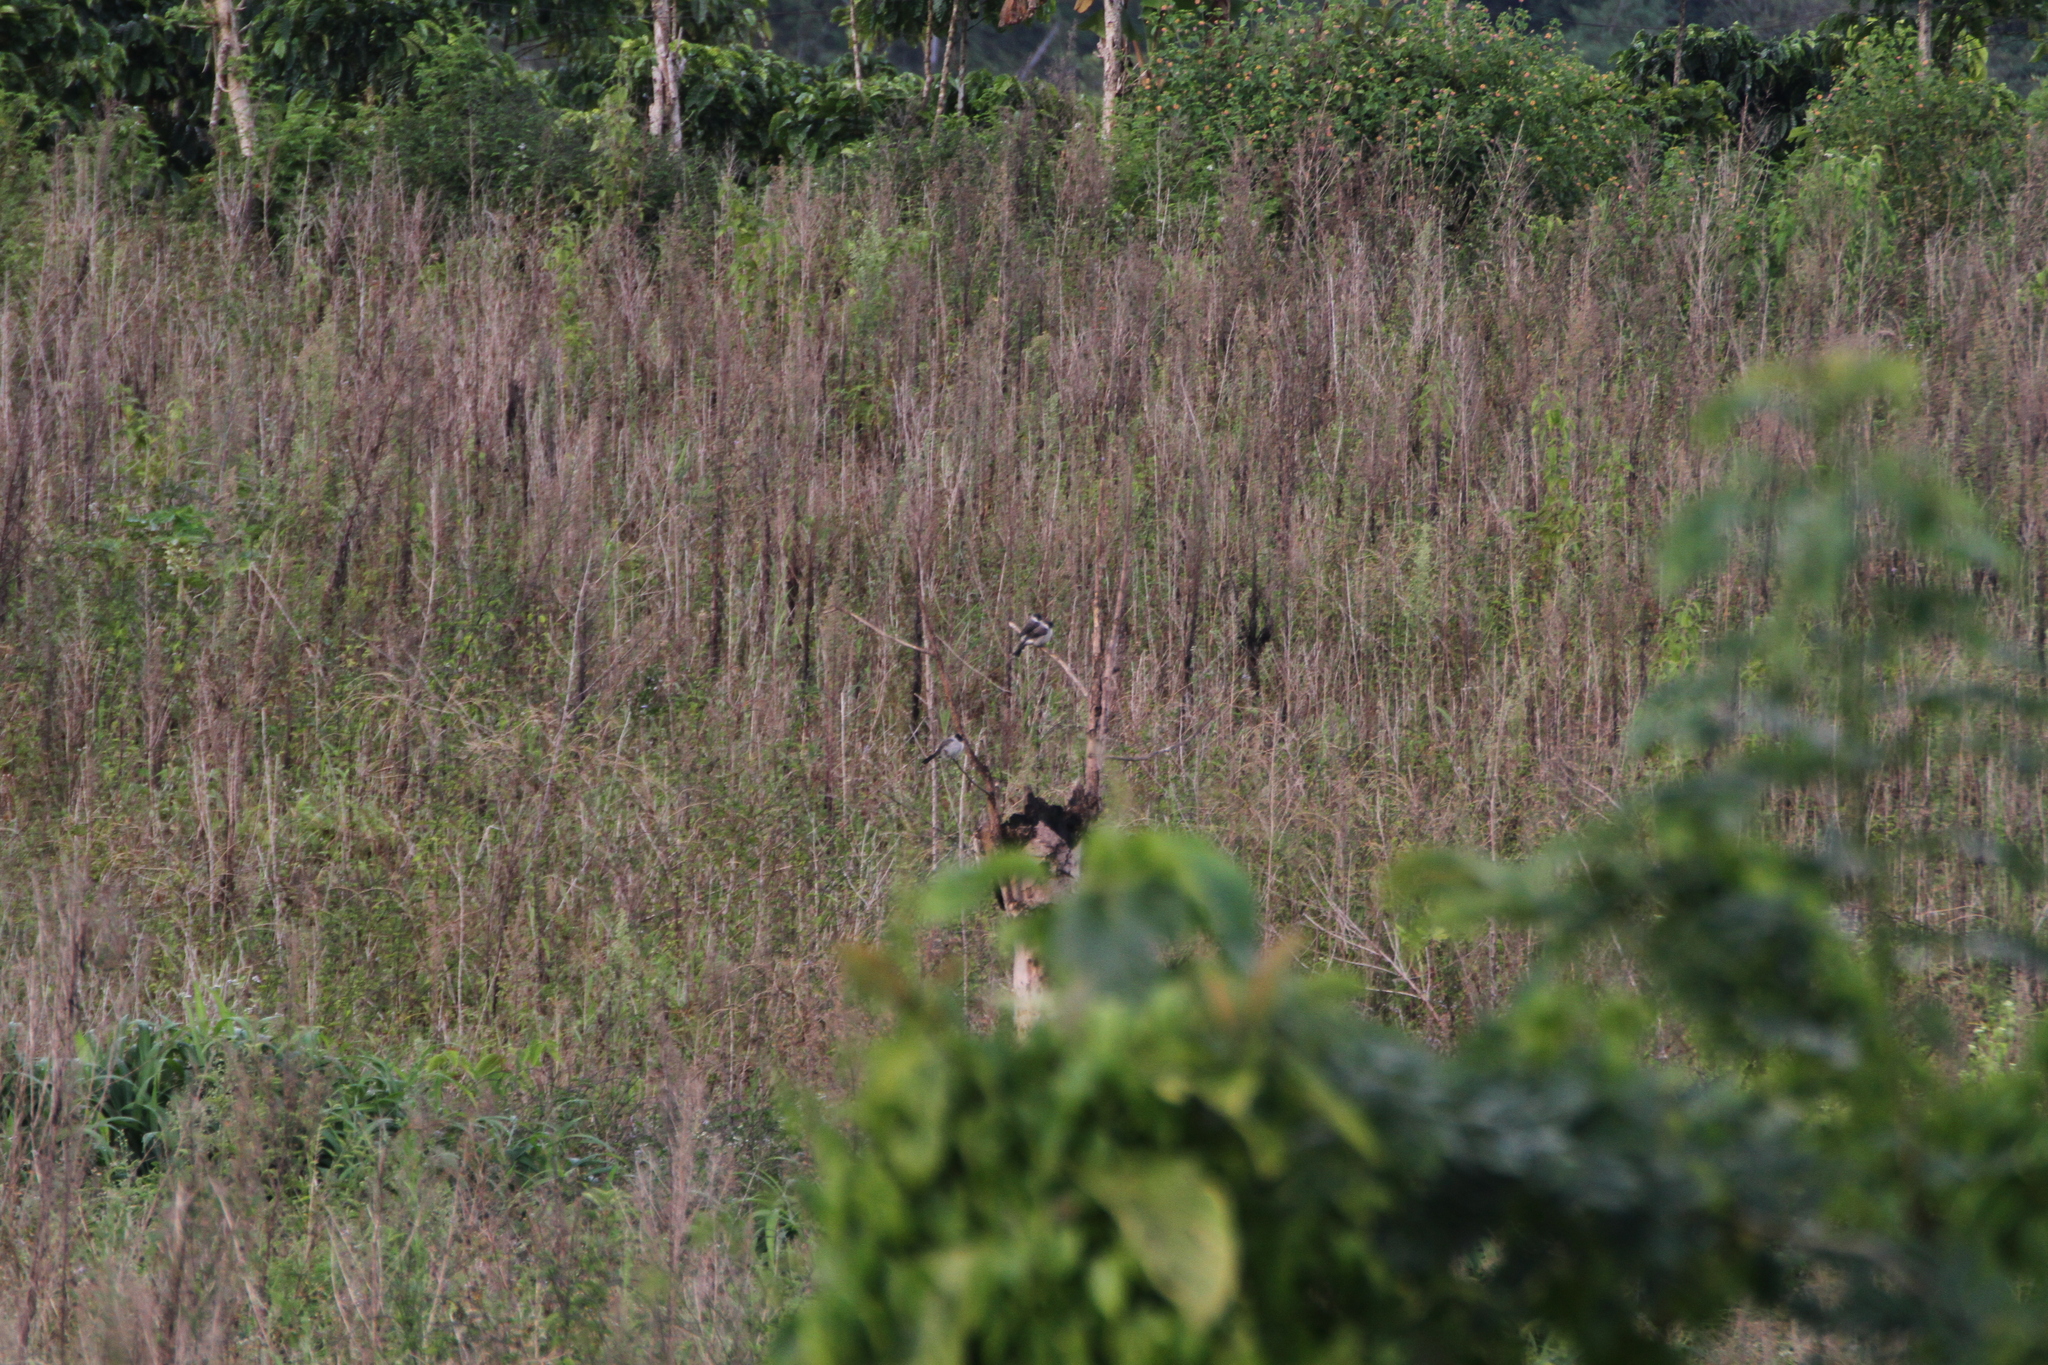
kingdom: Animalia
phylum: Chordata
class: Aves
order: Passeriformes
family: Pycnonotidae
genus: Pycnonotus
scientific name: Pycnonotus aurigaster
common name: Sooty-headed bulbul
